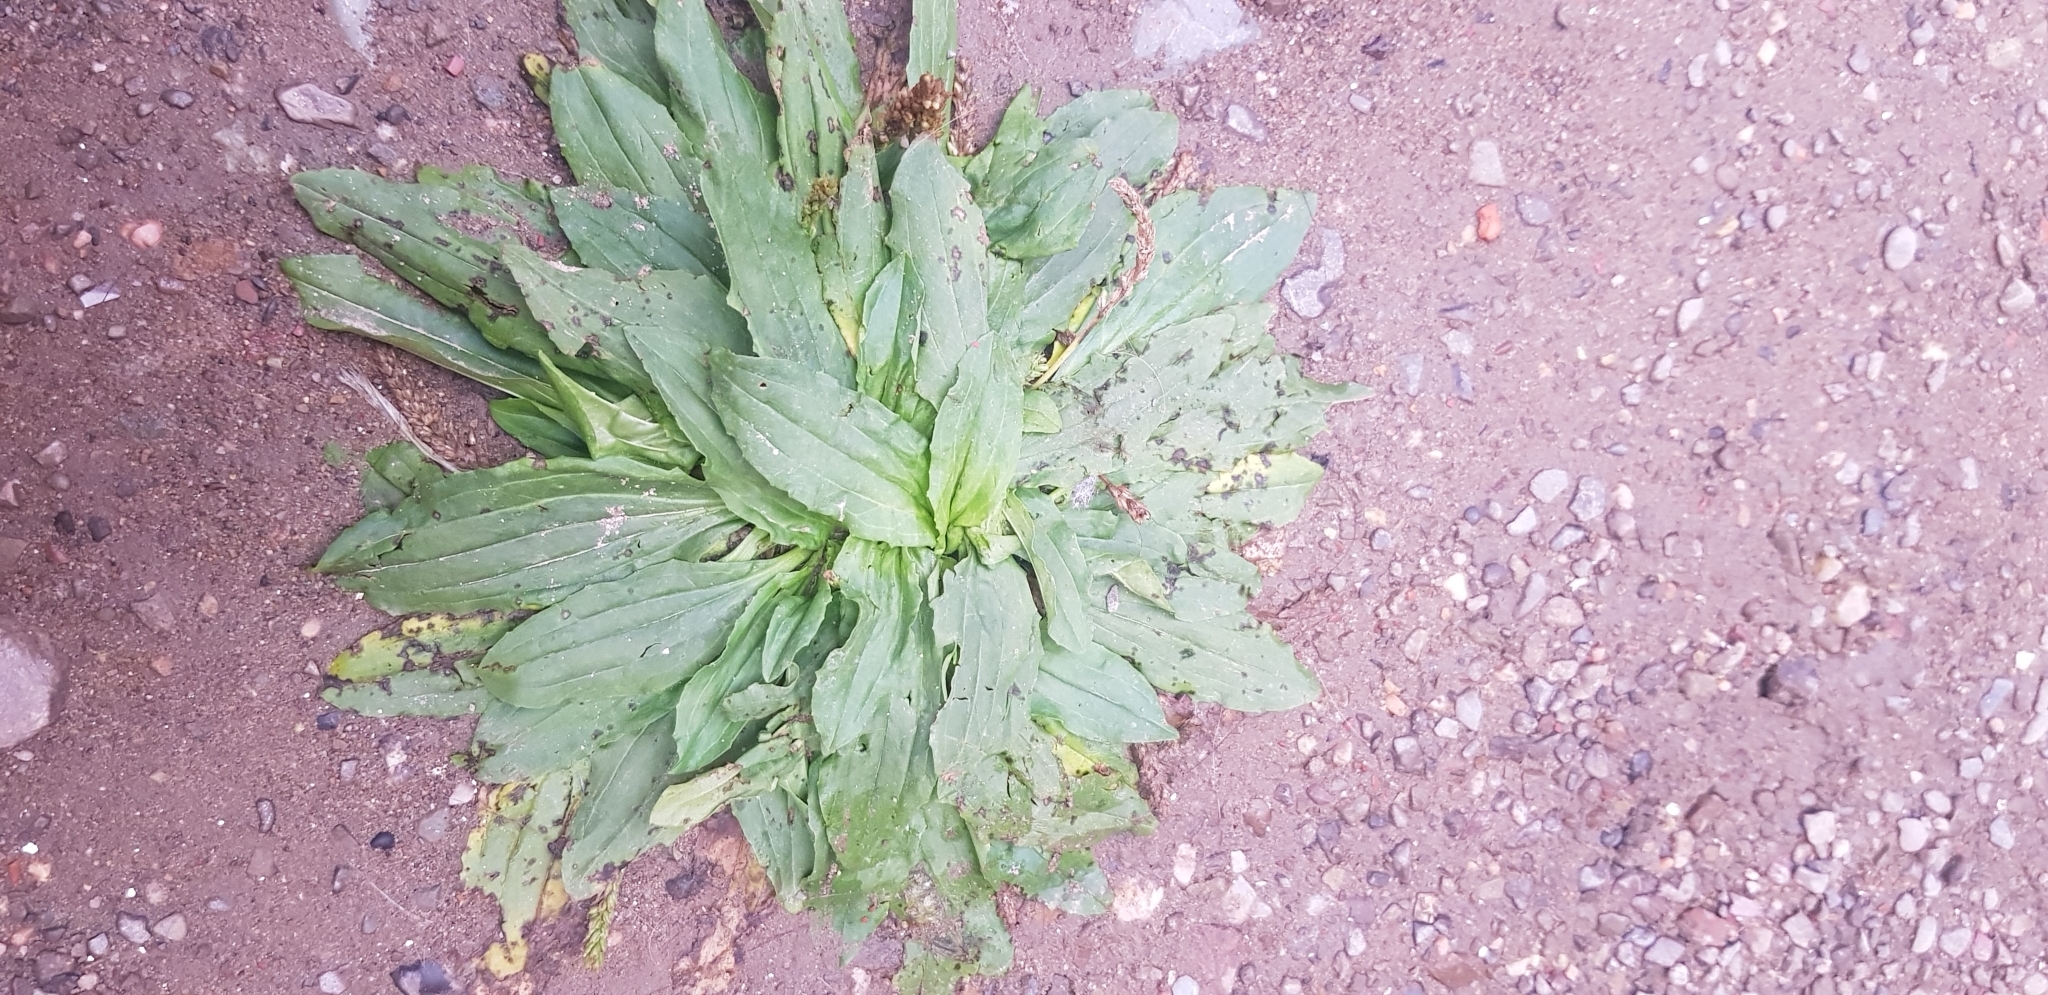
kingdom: Plantae
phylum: Tracheophyta
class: Magnoliopsida
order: Lamiales
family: Plantaginaceae
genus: Plantago
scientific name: Plantago depressa
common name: Depressed plantain
